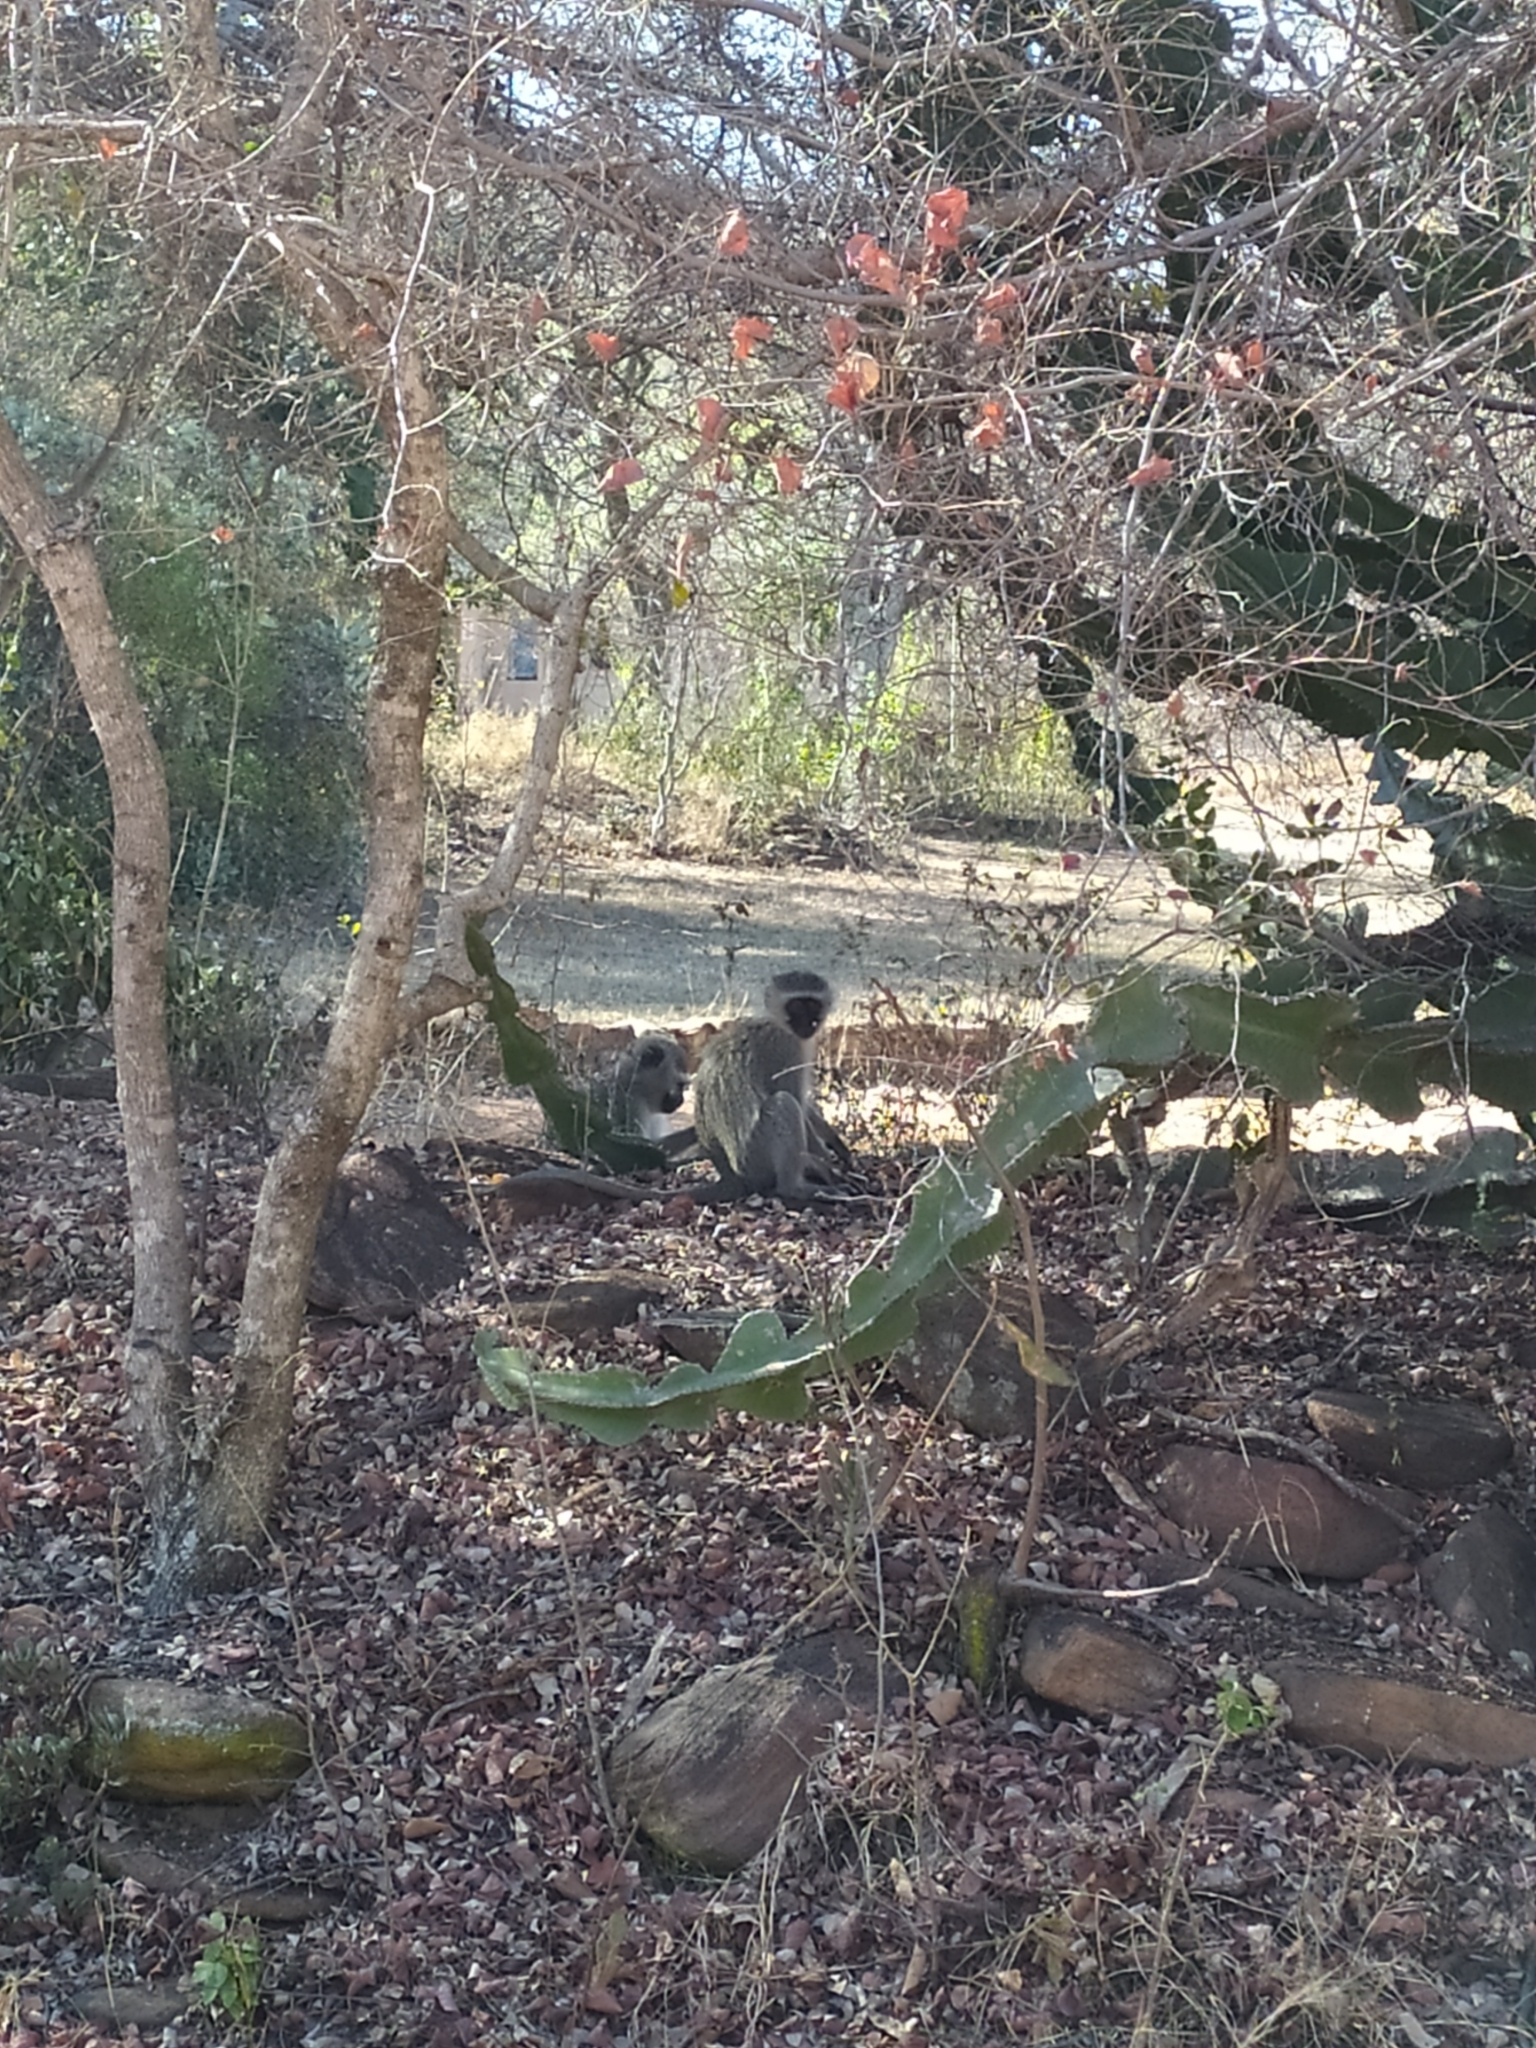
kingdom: Animalia
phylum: Chordata
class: Mammalia
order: Primates
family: Cercopithecidae
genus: Chlorocebus
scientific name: Chlorocebus pygerythrus
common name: Vervet monkey
